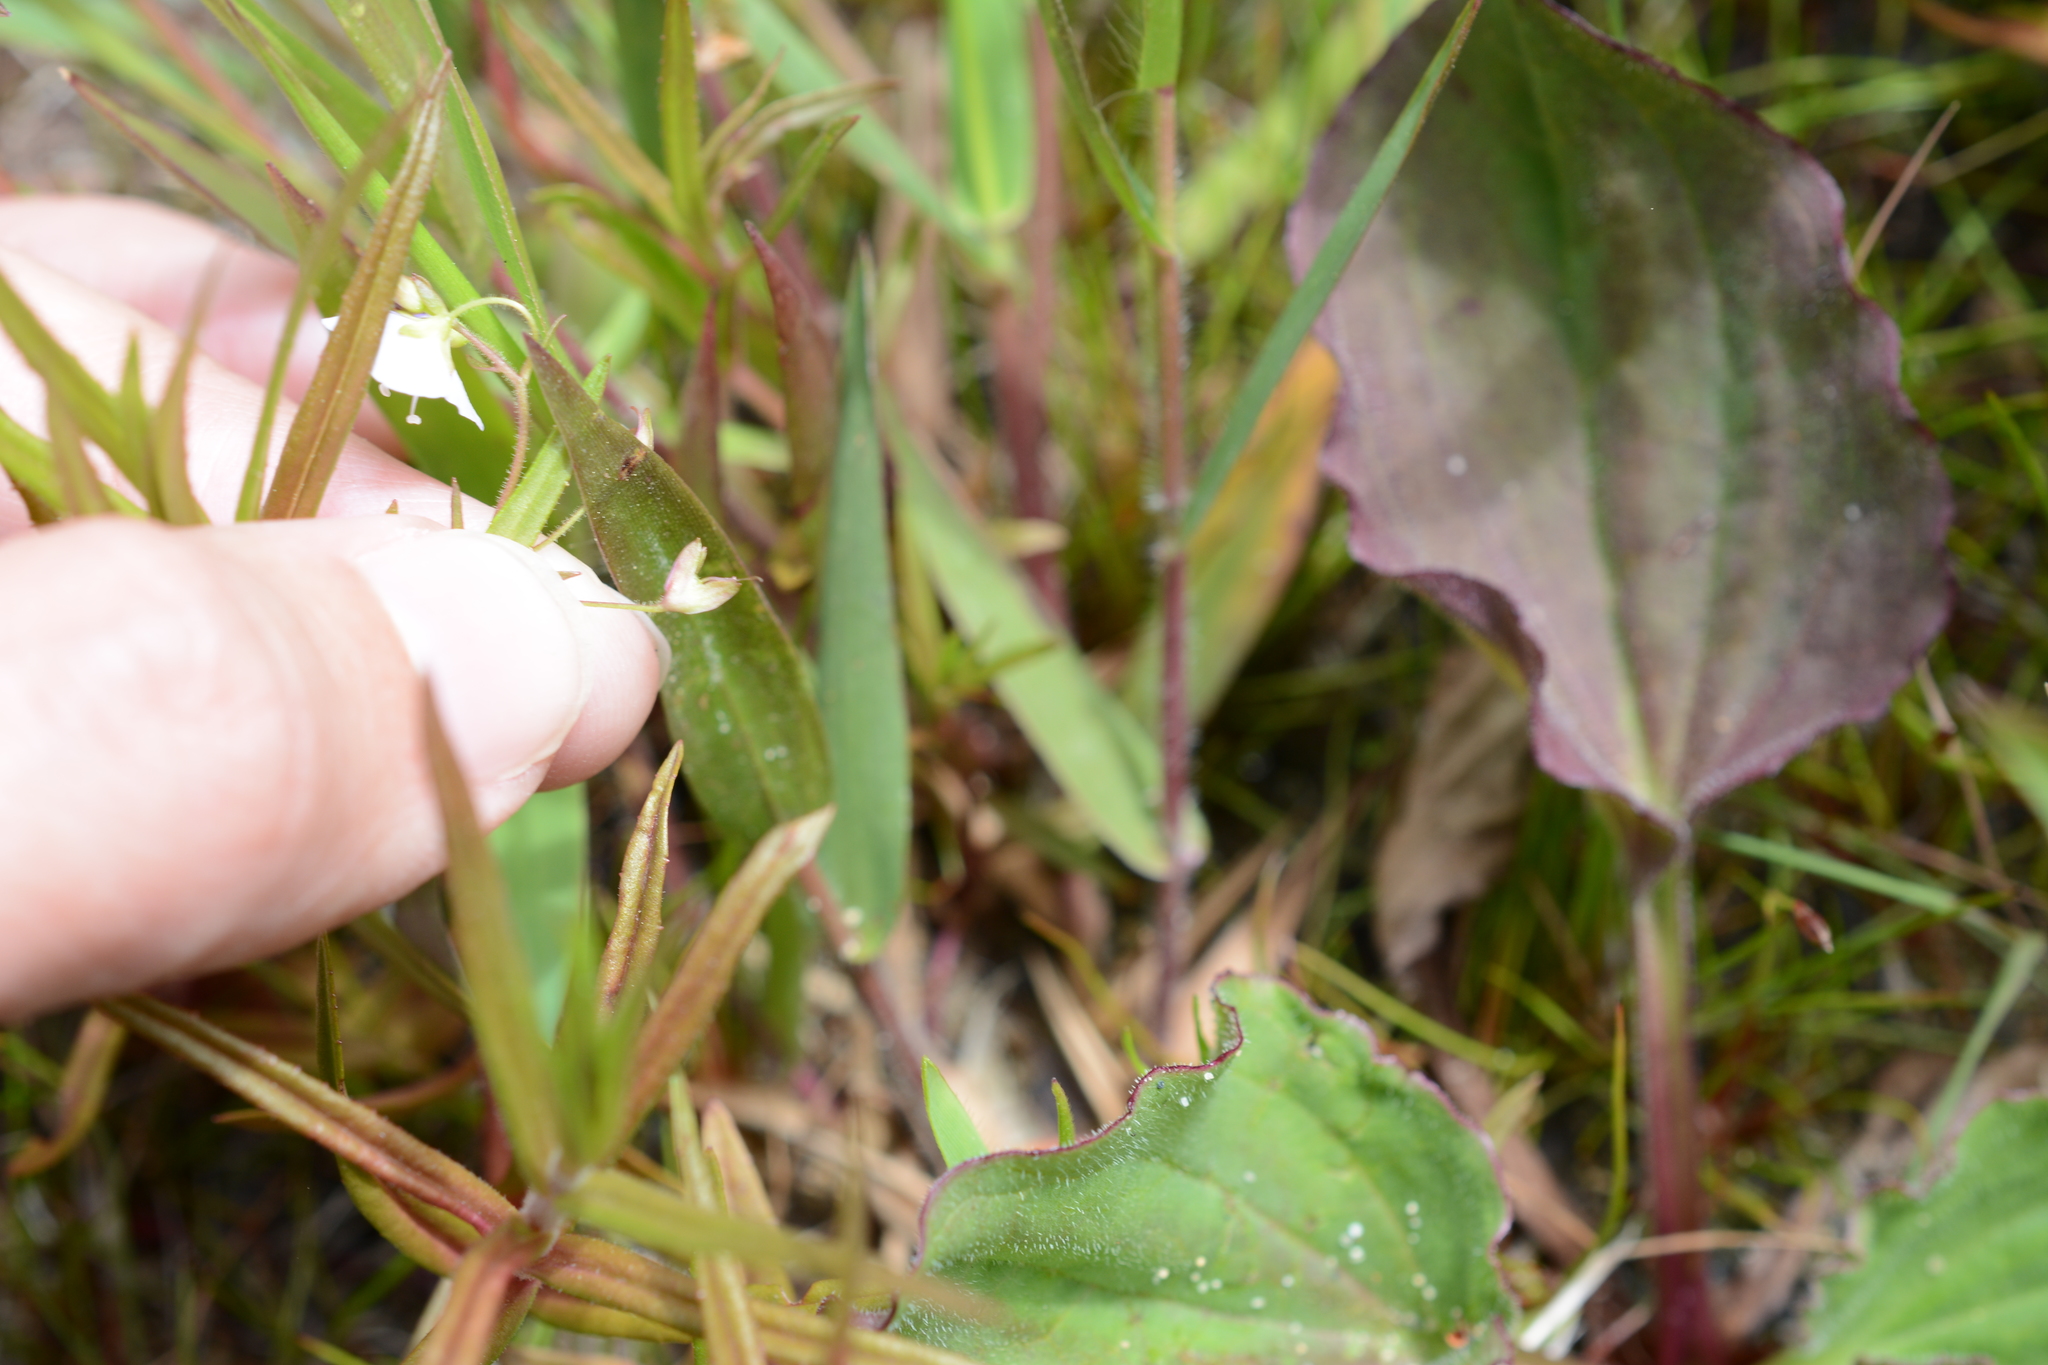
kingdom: Plantae
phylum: Tracheophyta
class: Magnoliopsida
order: Lamiales
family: Plantaginaceae
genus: Veronica
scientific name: Veronica scutellata
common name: Marsh speedwell
